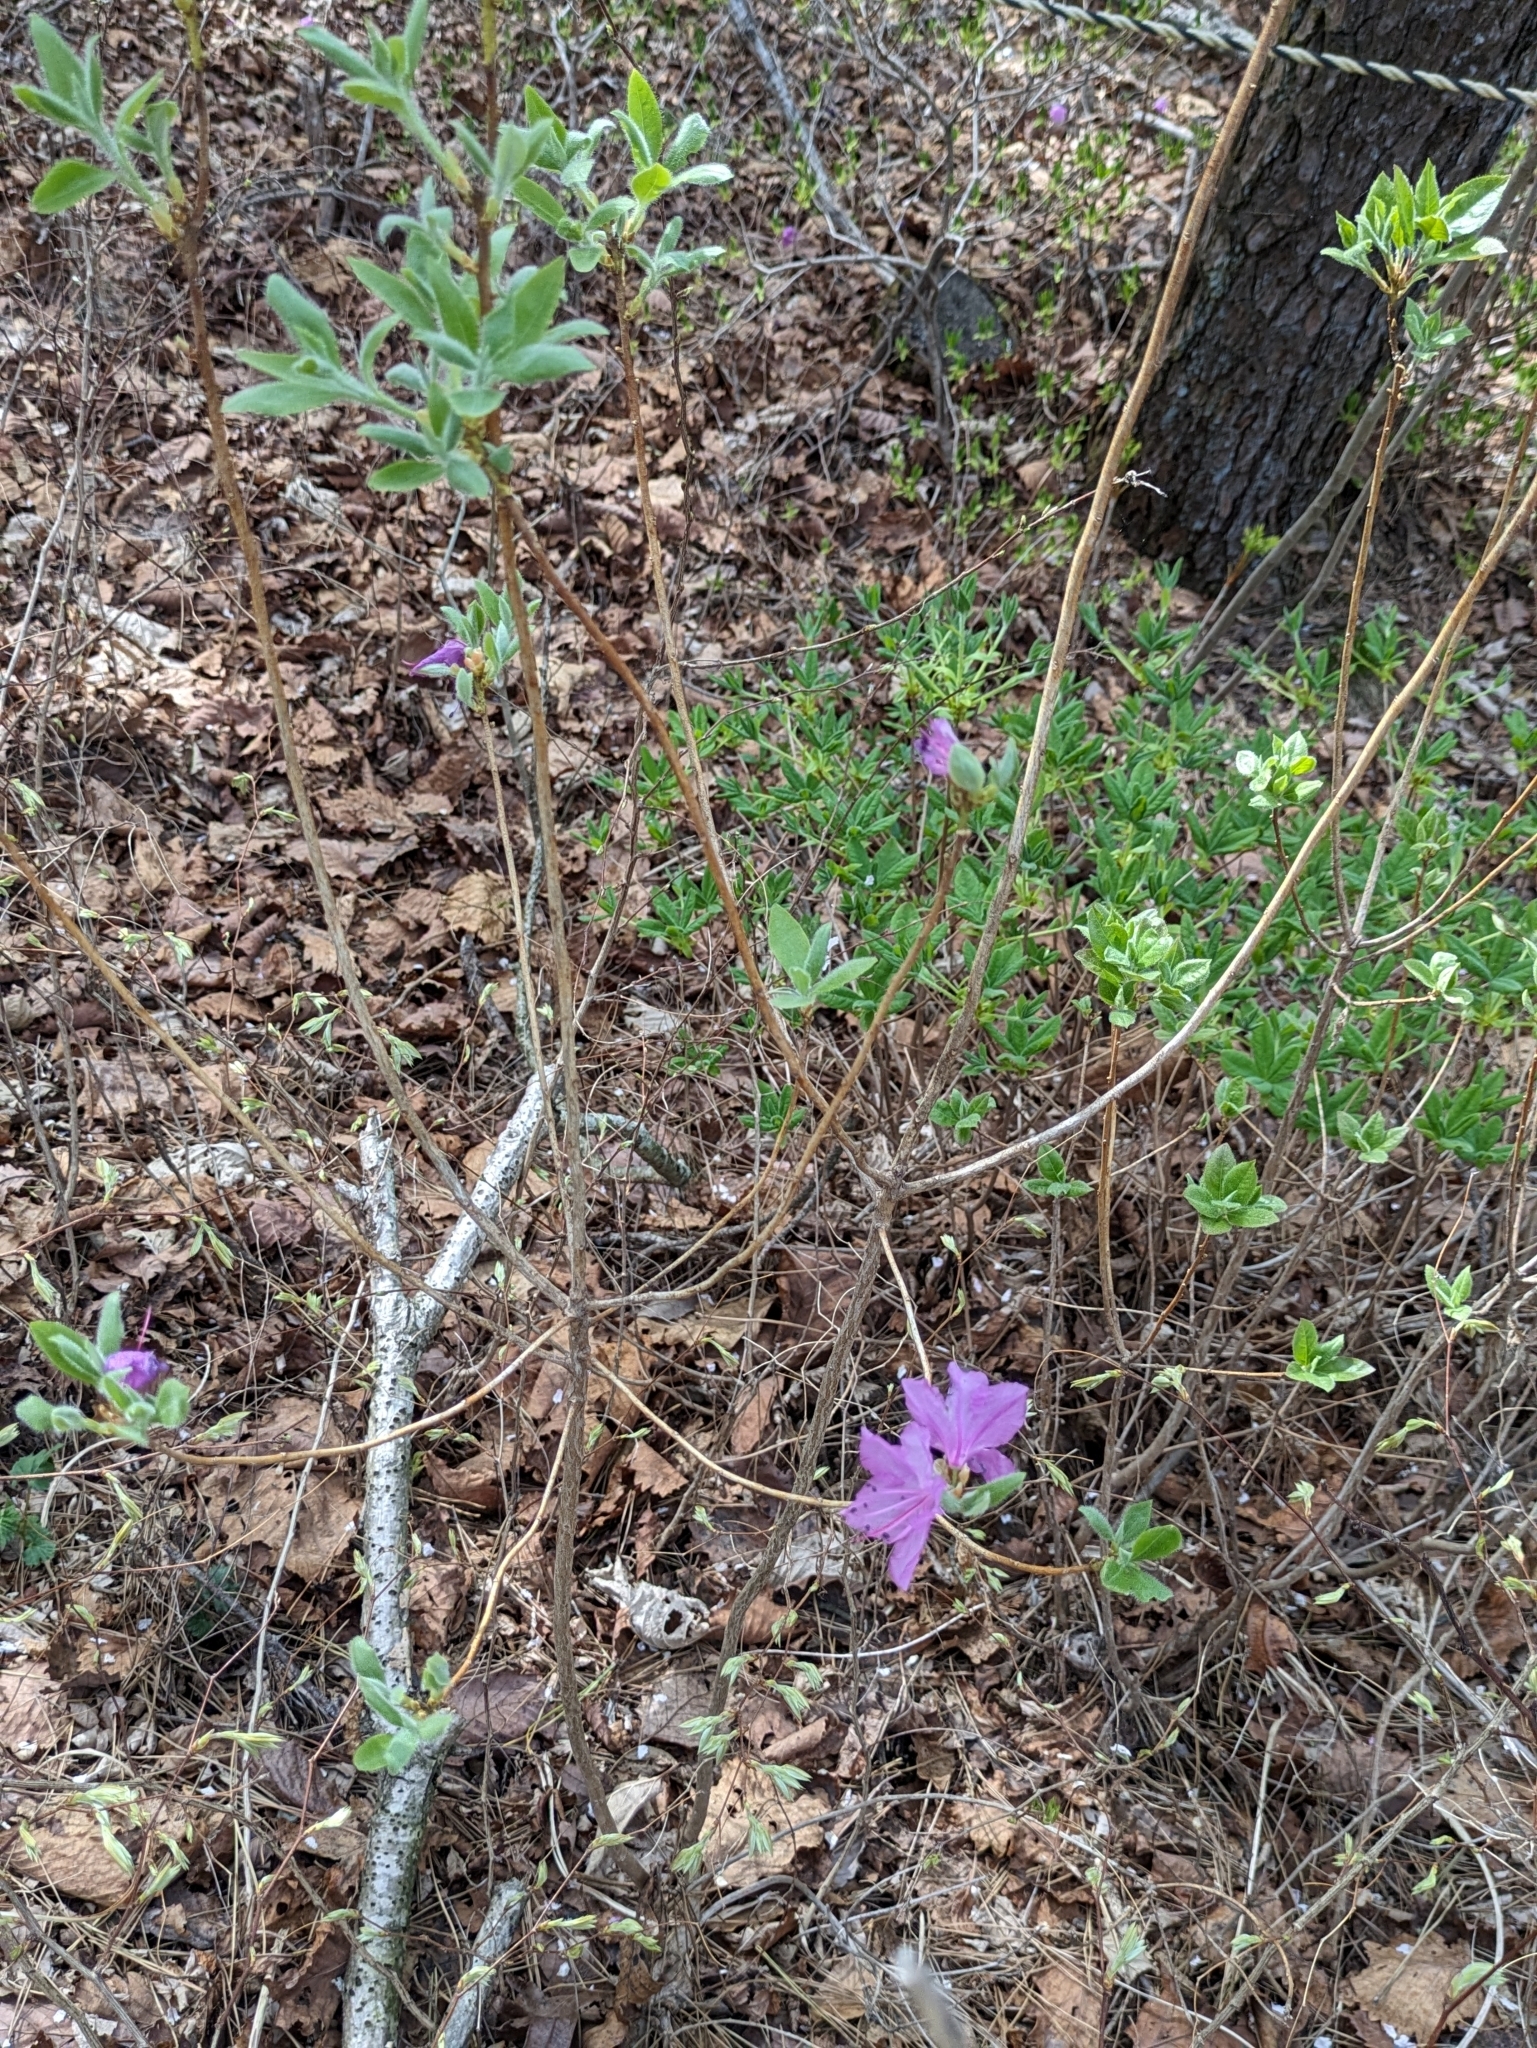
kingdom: Plantae
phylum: Tracheophyta
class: Magnoliopsida
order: Ericales
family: Ericaceae
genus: Rhododendron
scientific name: Rhododendron mucronulatum
